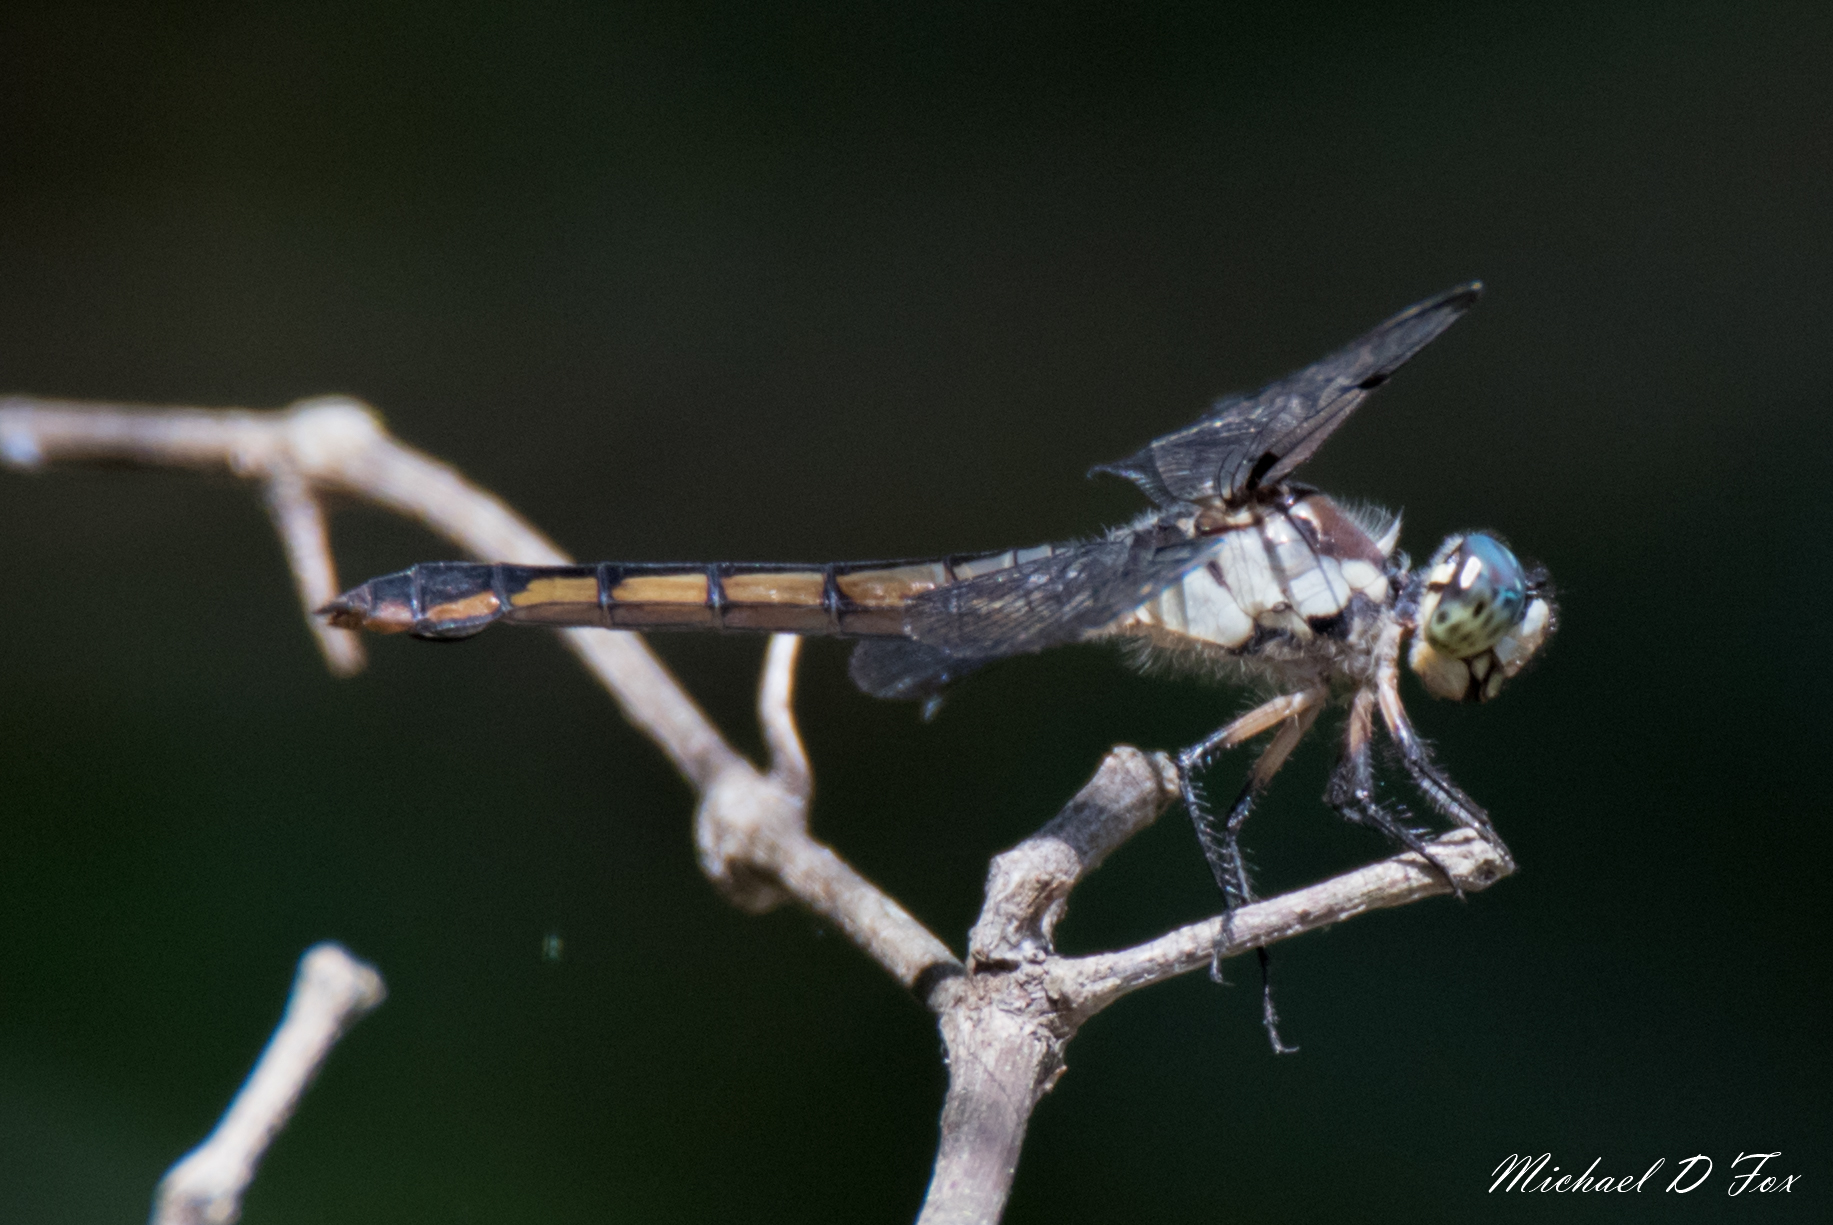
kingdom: Animalia
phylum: Arthropoda
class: Insecta
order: Odonata
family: Libellulidae
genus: Libellula
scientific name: Libellula vibrans
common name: Great blue skimmer
